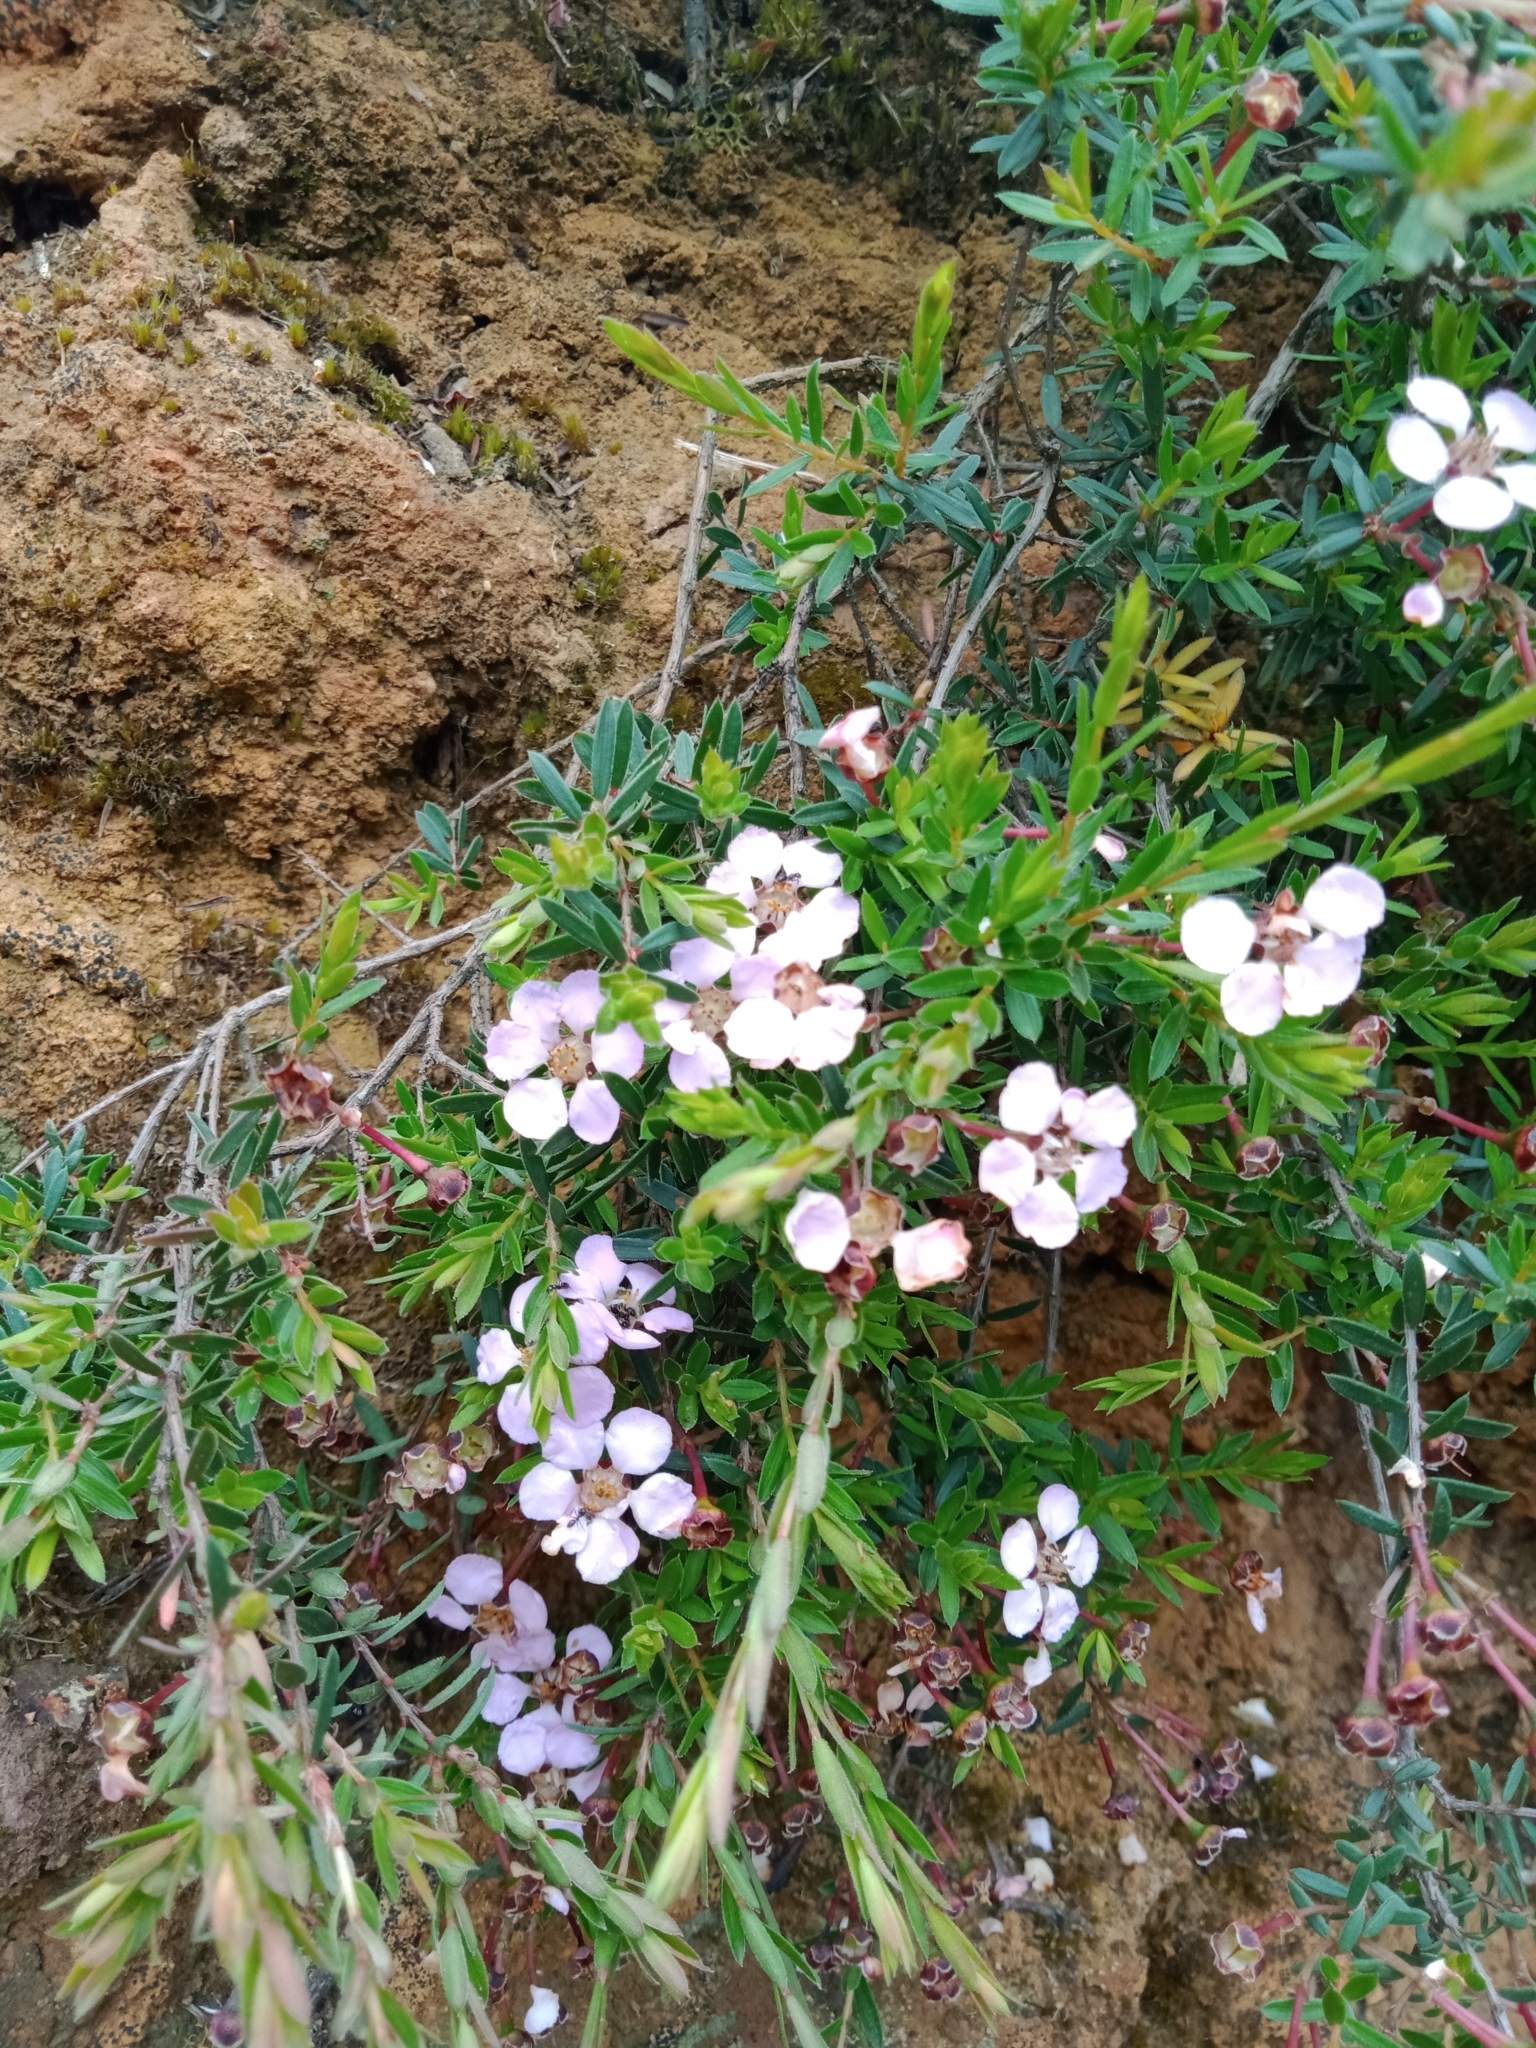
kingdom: Plantae
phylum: Tracheophyta
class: Magnoliopsida
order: Myrtales
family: Myrtaceae
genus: Euryomyrtus
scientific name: Euryomyrtus ramosissima
